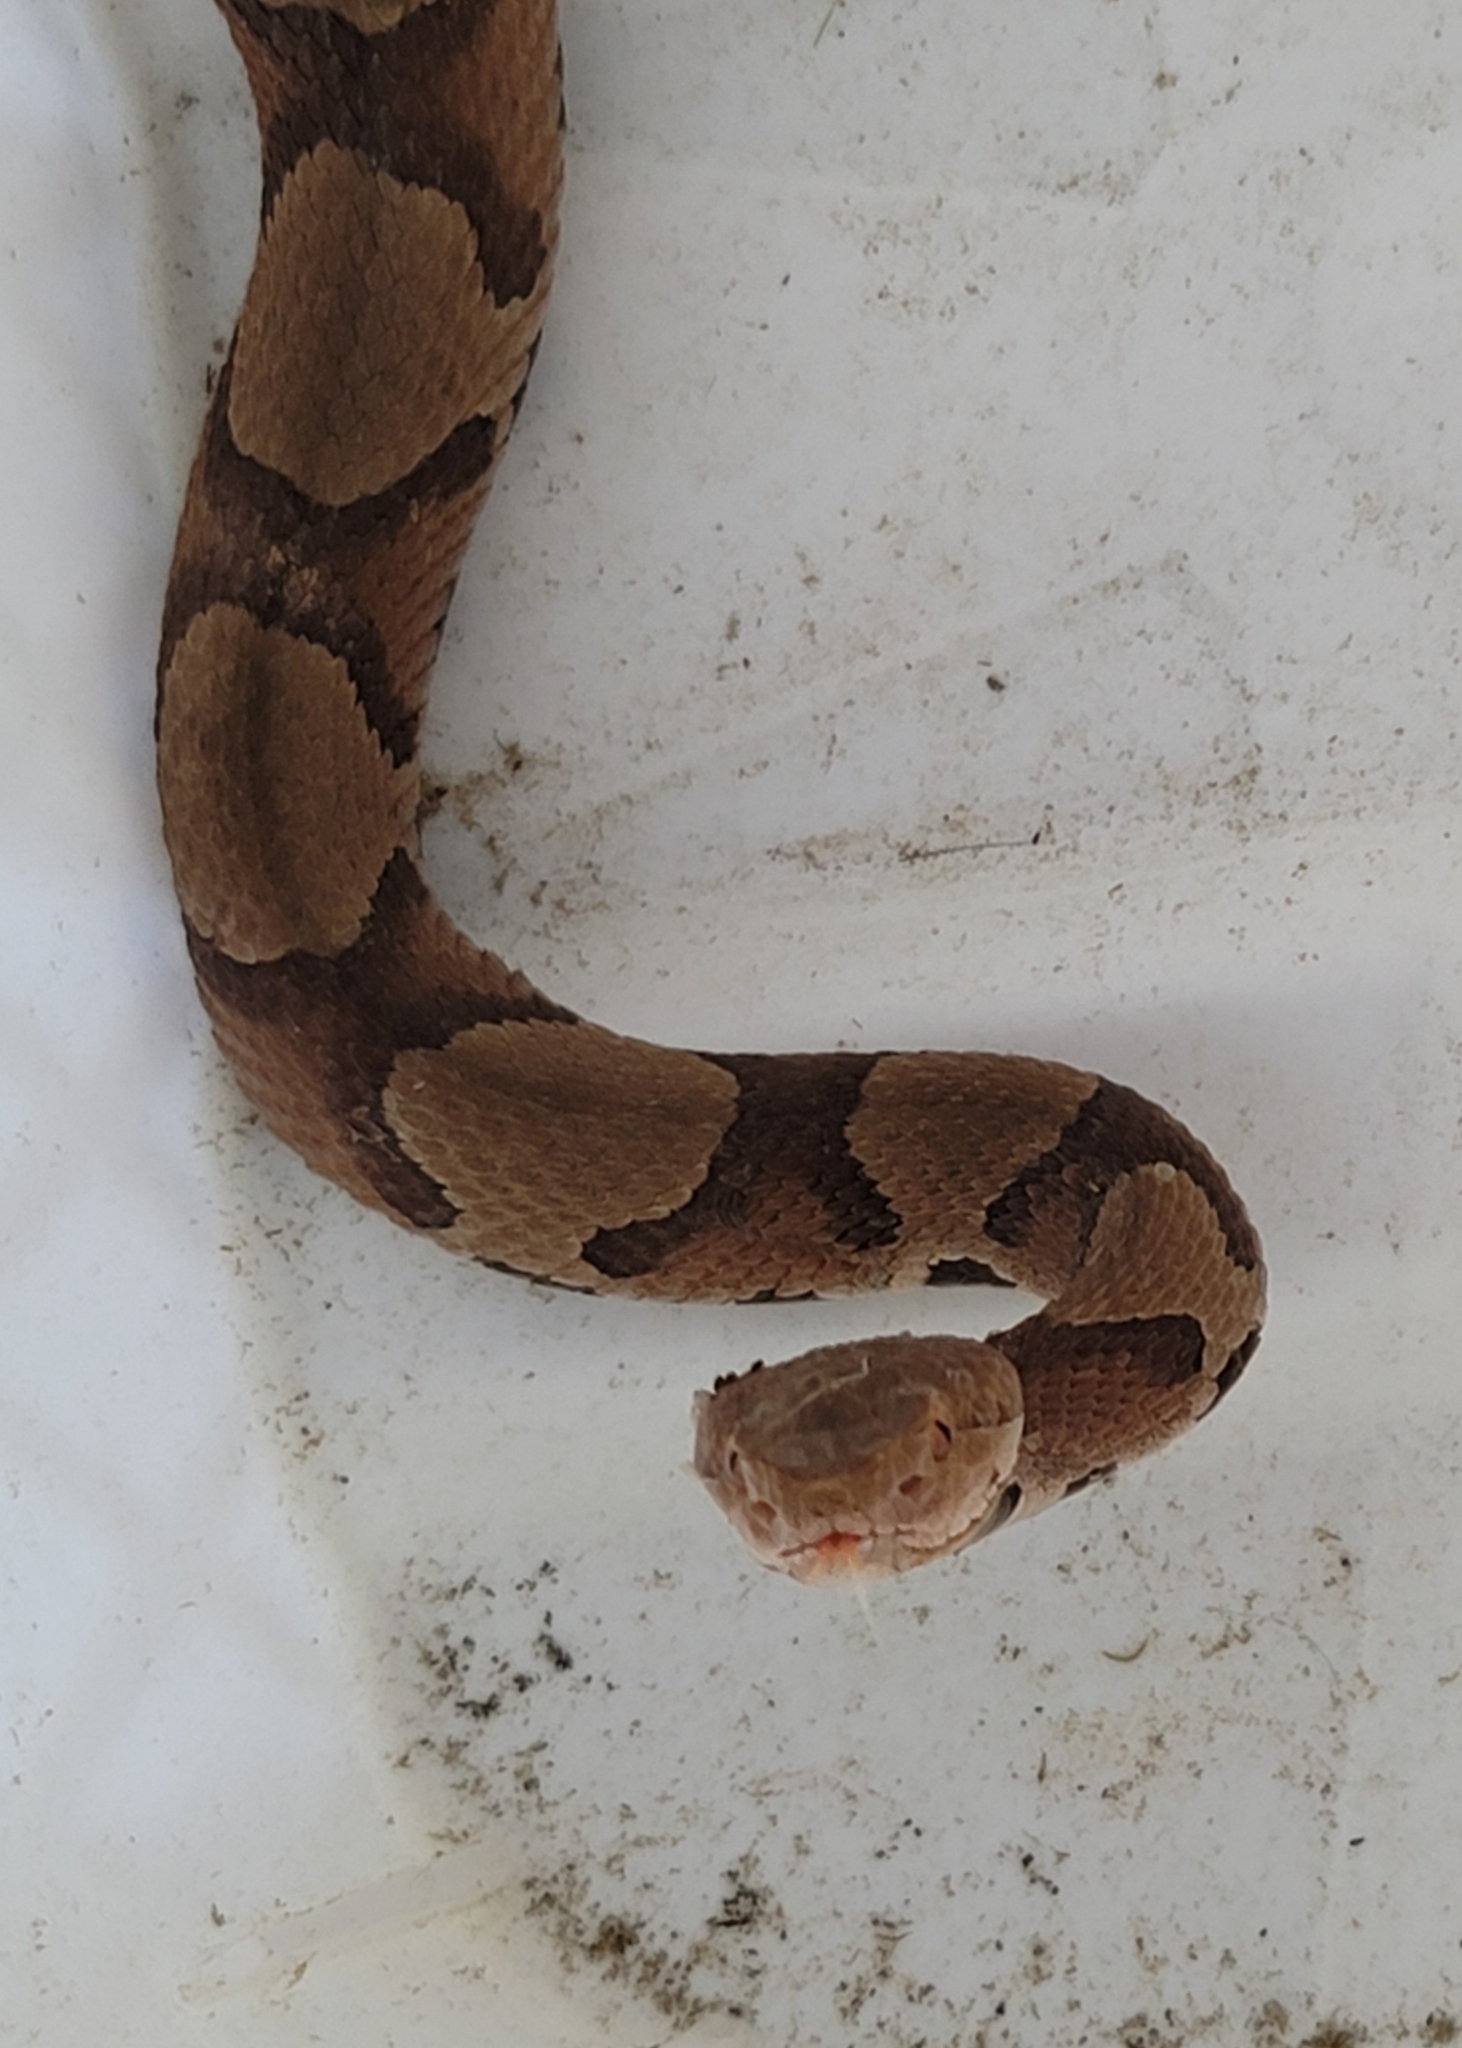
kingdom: Animalia
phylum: Chordata
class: Squamata
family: Viperidae
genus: Agkistrodon
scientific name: Agkistrodon contortrix
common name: Northern copperhead
